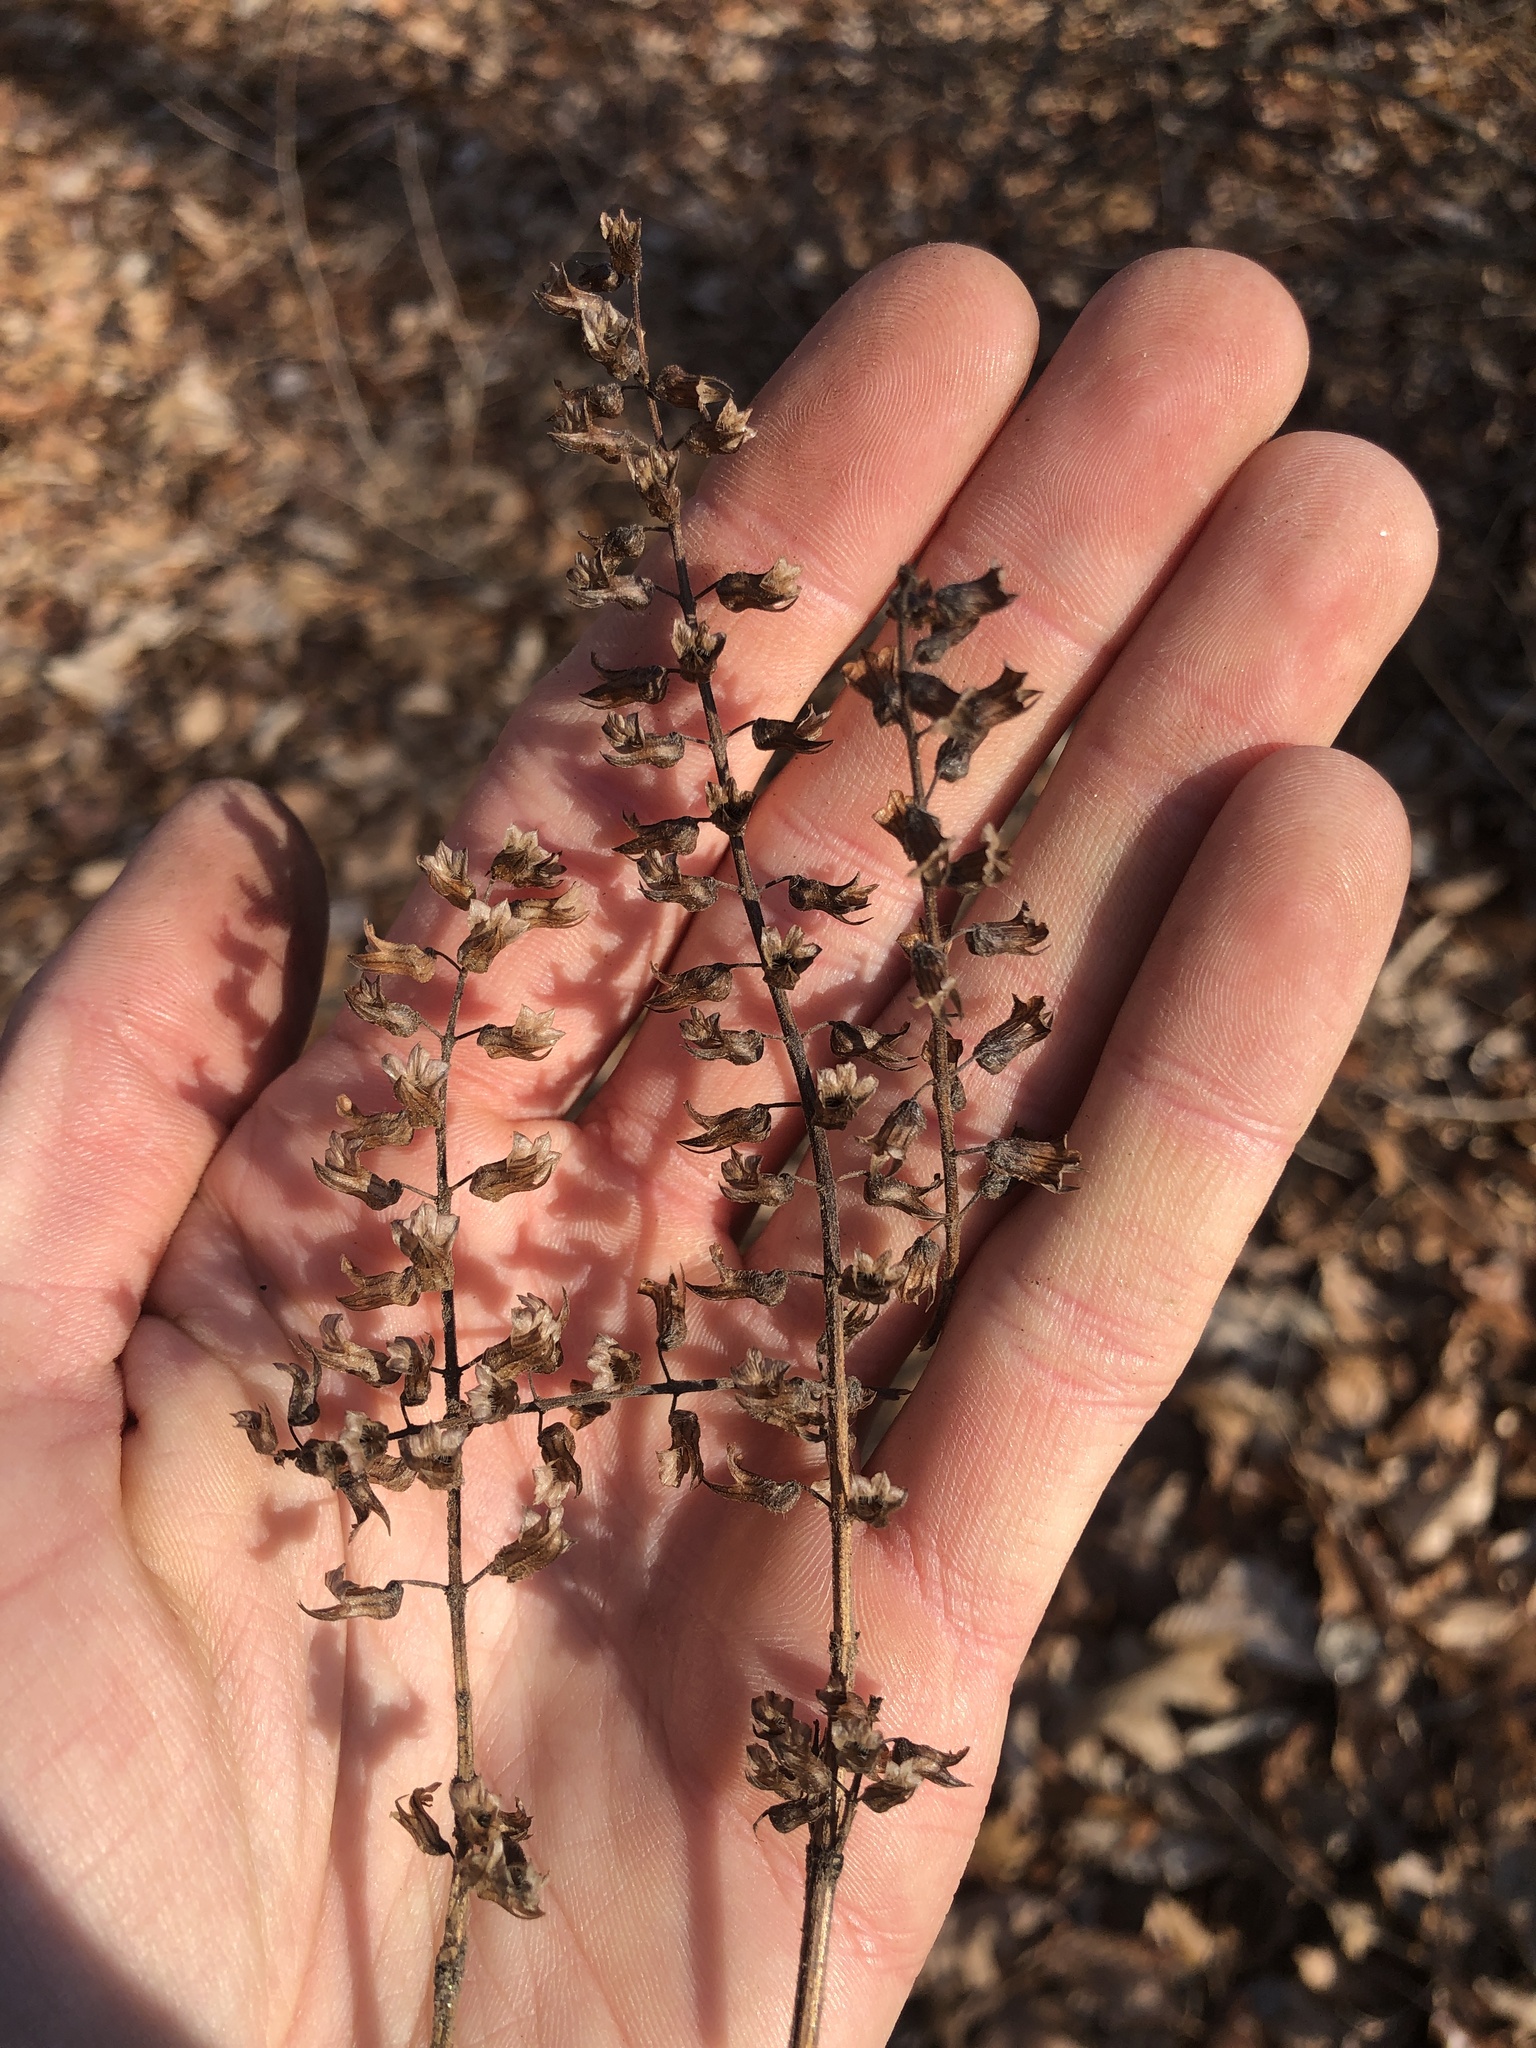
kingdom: Plantae
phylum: Tracheophyta
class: Magnoliopsida
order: Lamiales
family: Lamiaceae
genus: Perilla
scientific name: Perilla frutescens
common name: Perilla
